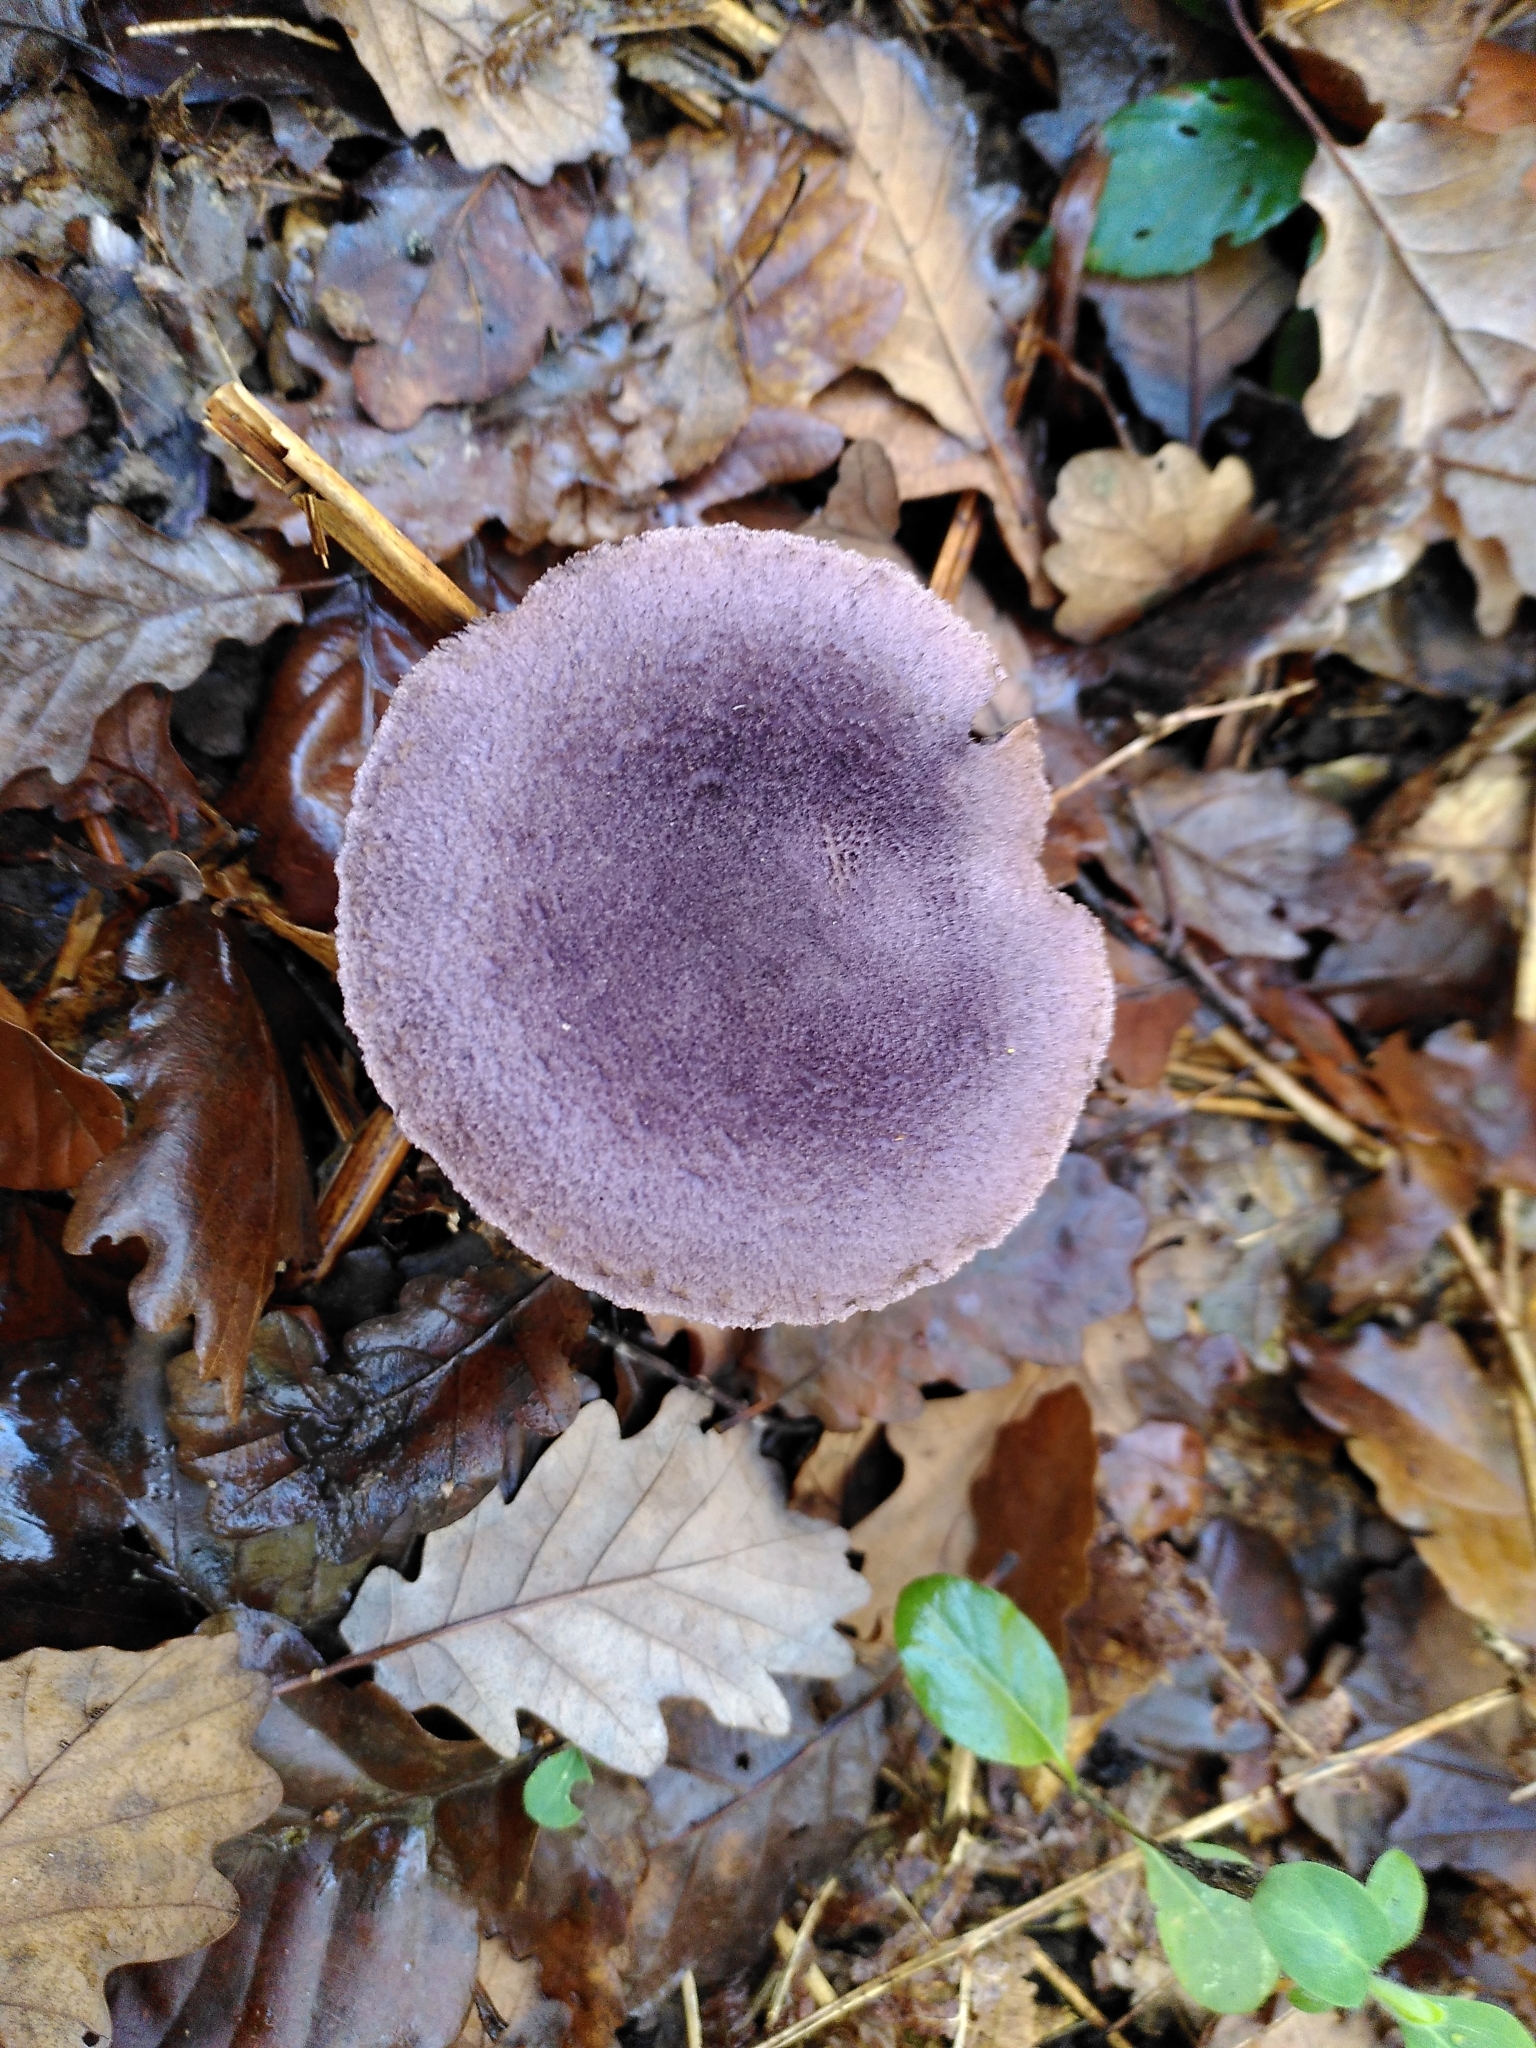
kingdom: Fungi
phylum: Basidiomycota
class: Agaricomycetes
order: Agaricales
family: Cortinariaceae
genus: Cortinarius
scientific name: Cortinarius violaceus
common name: Violet webcap
